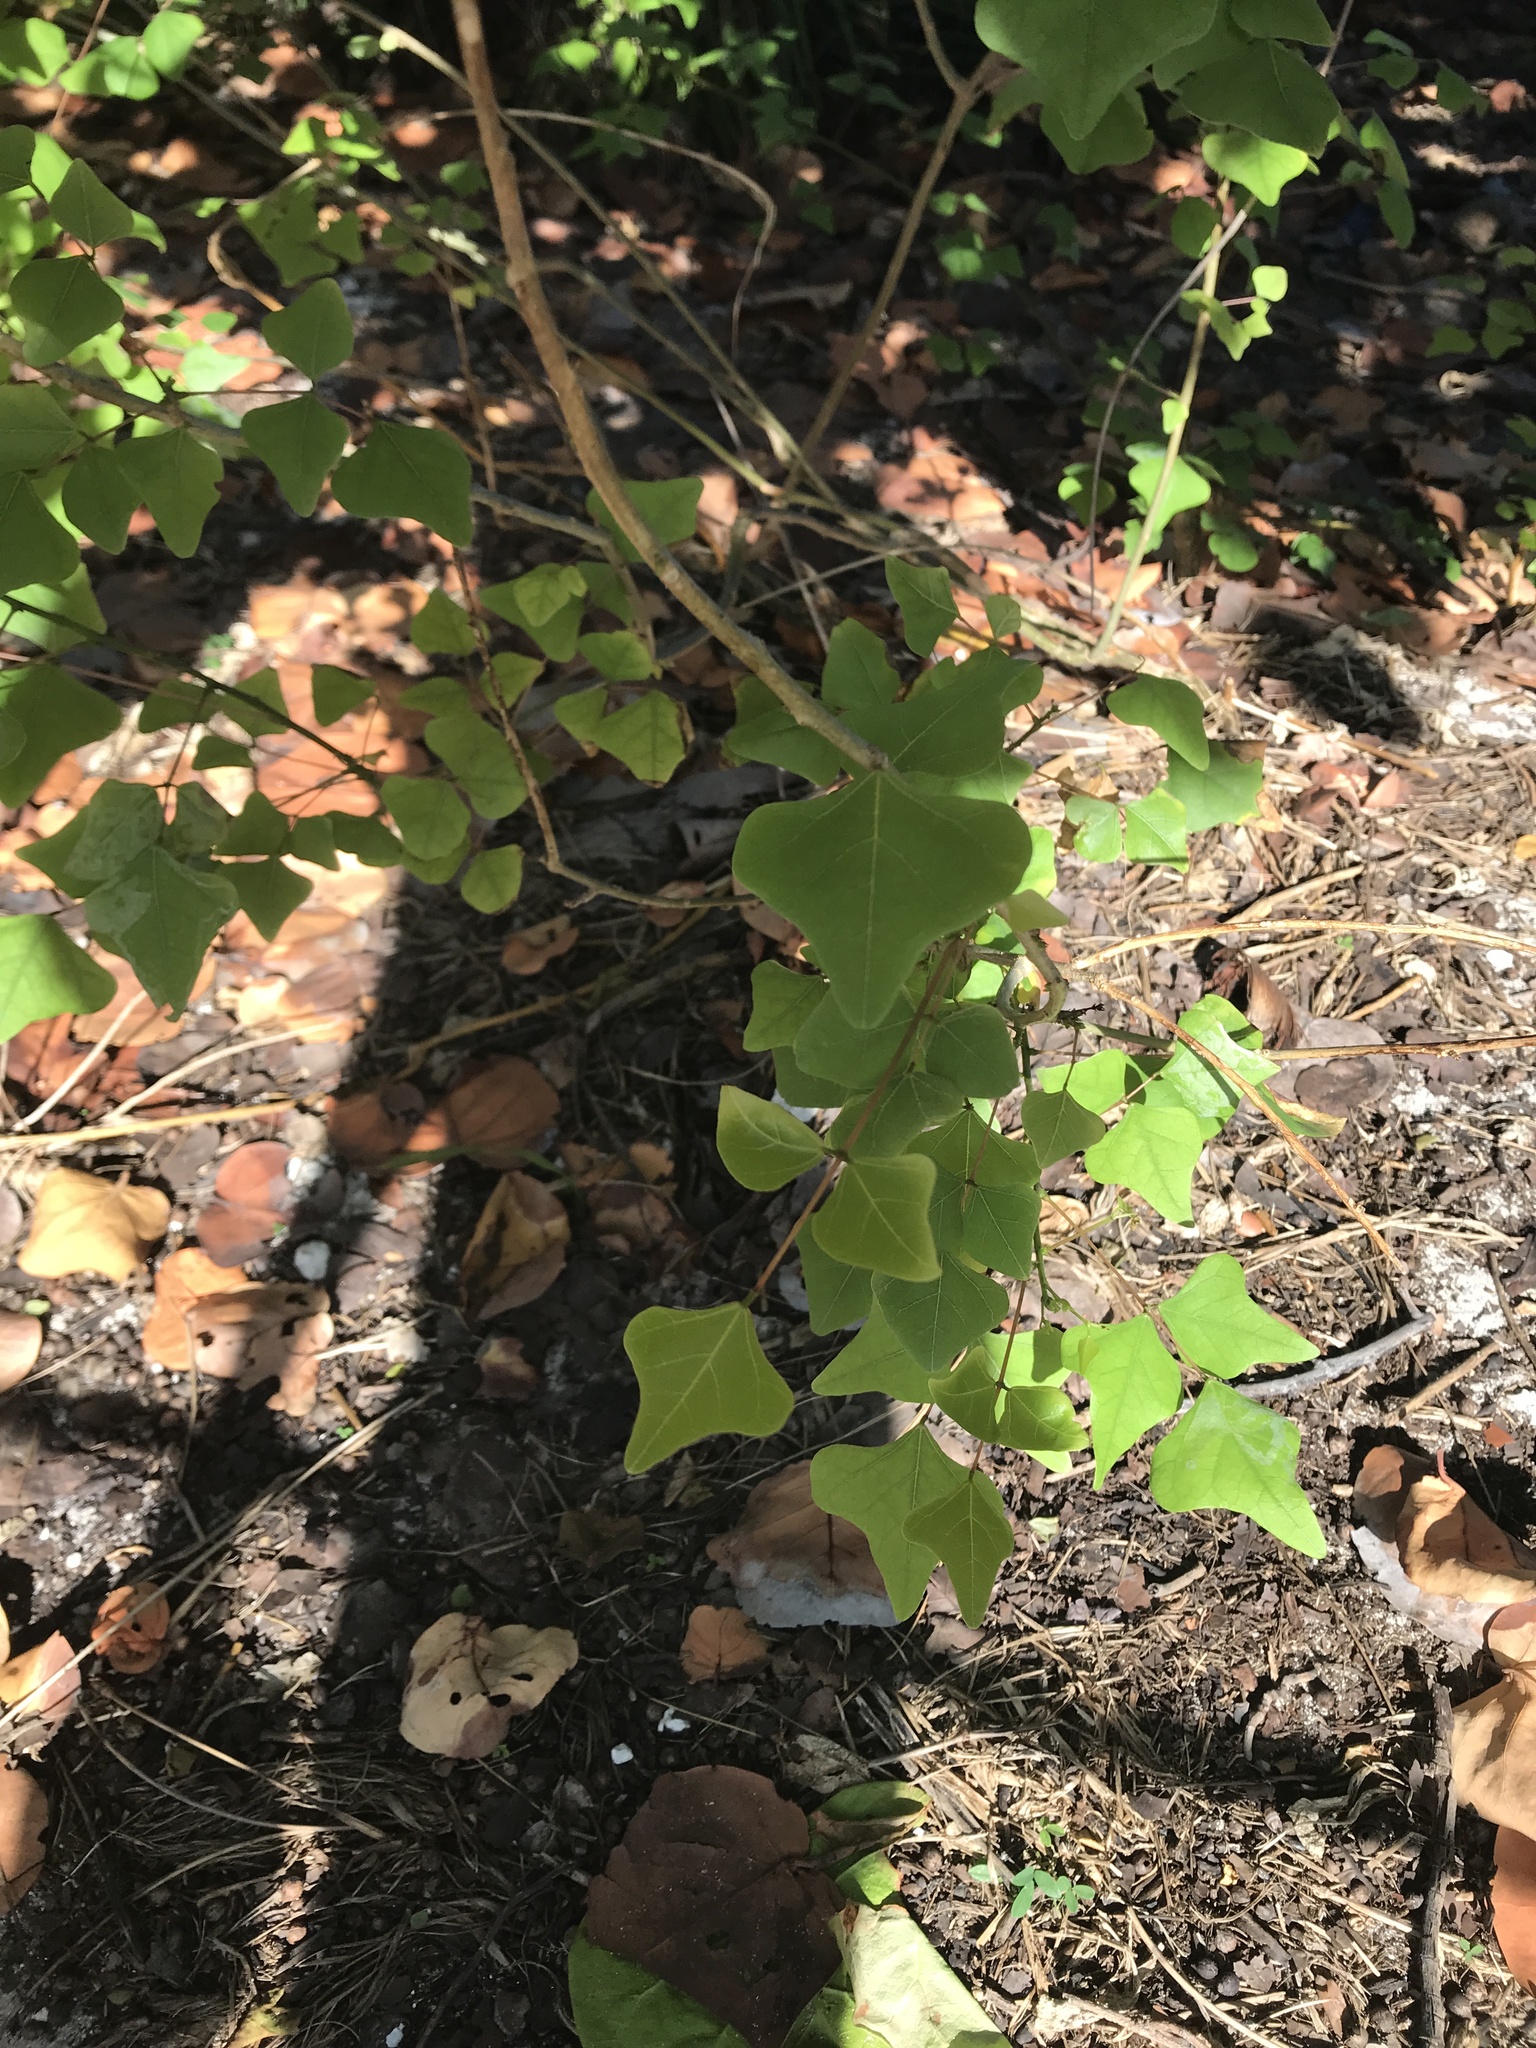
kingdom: Plantae
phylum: Tracheophyta
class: Magnoliopsida
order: Fabales
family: Fabaceae
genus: Erythrina
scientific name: Erythrina herbacea
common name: Coral-bean
